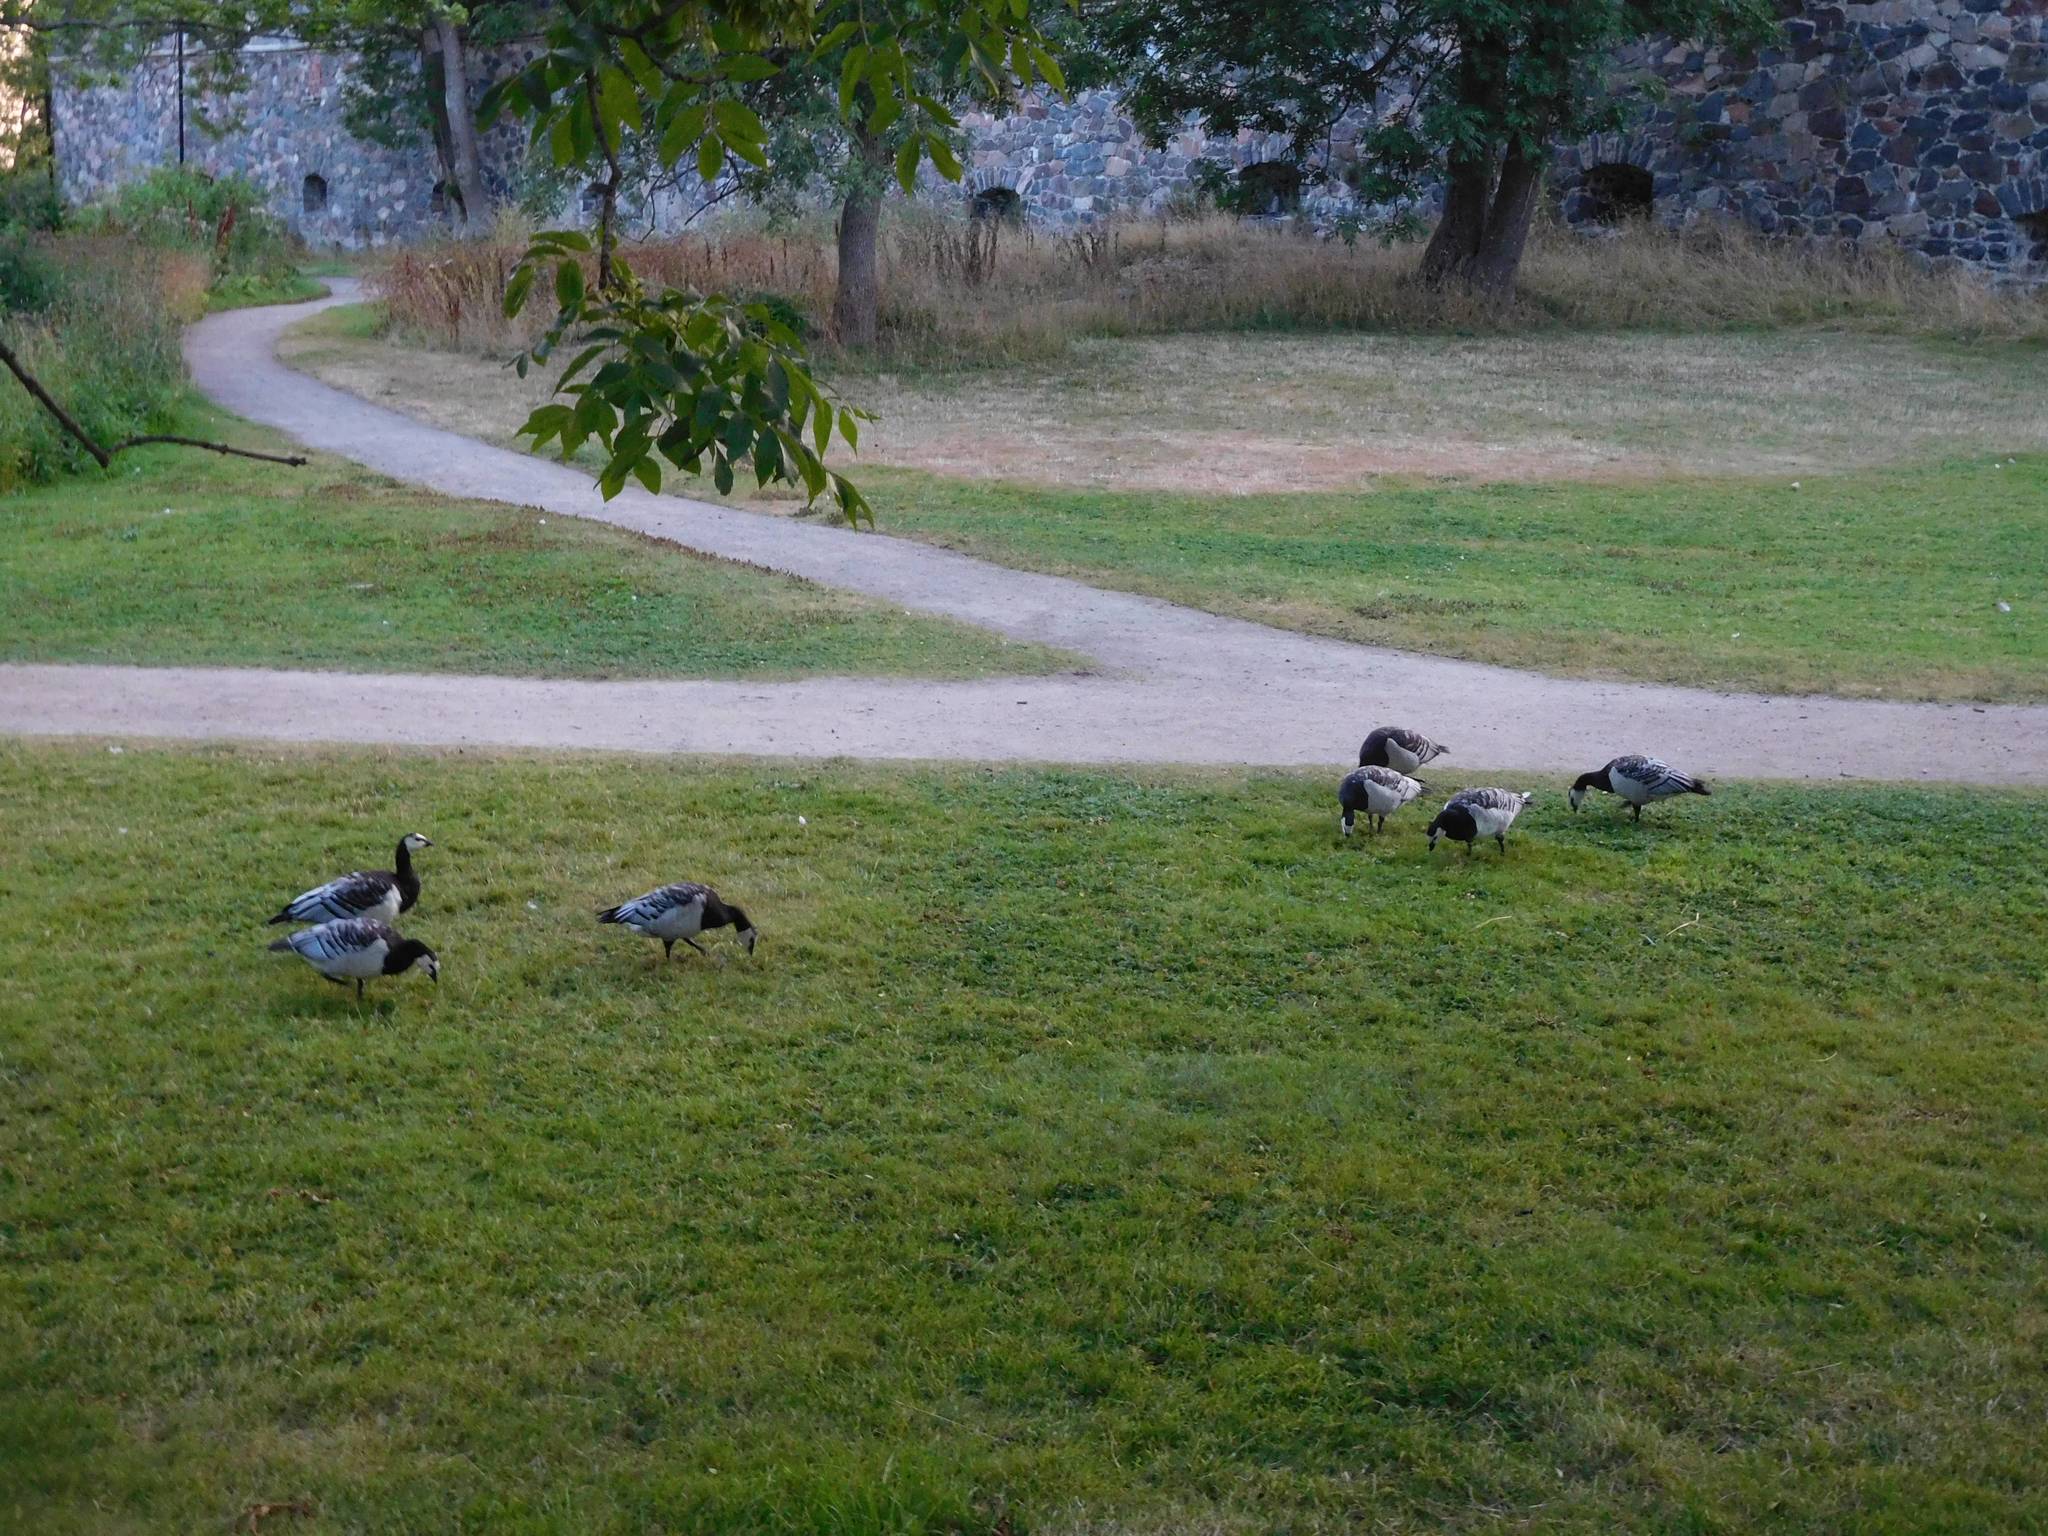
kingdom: Animalia
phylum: Chordata
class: Aves
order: Anseriformes
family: Anatidae
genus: Branta
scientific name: Branta leucopsis
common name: Barnacle goose
